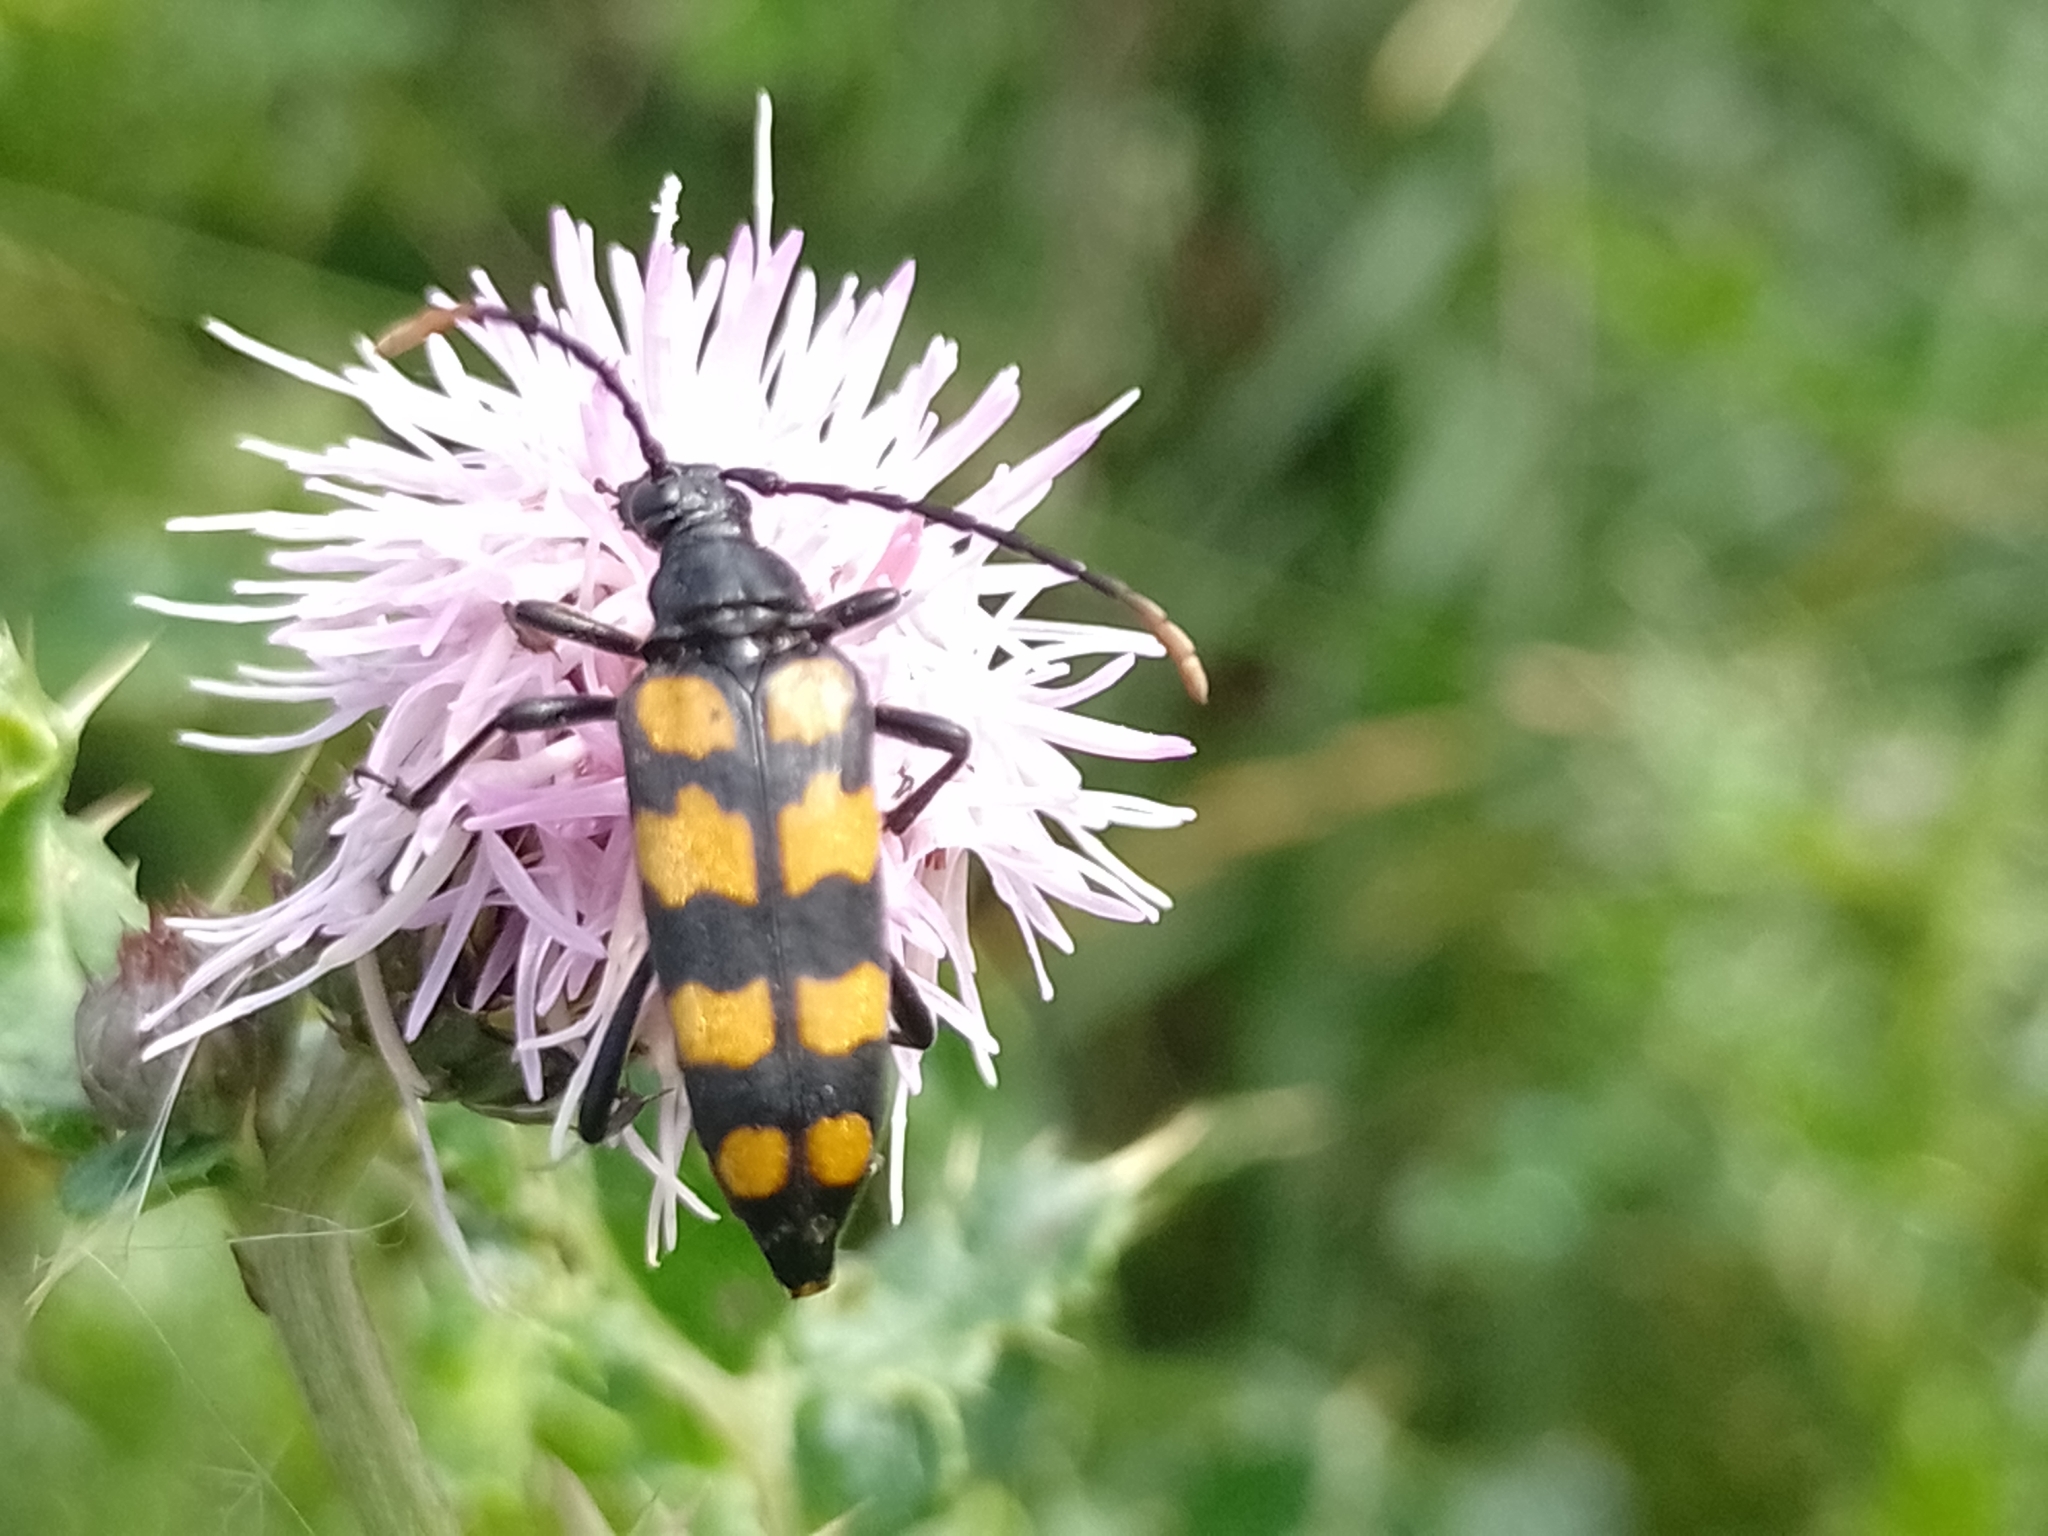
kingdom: Animalia
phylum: Arthropoda
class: Insecta
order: Coleoptera
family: Cerambycidae
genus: Leptura
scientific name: Leptura quadrifasciata
